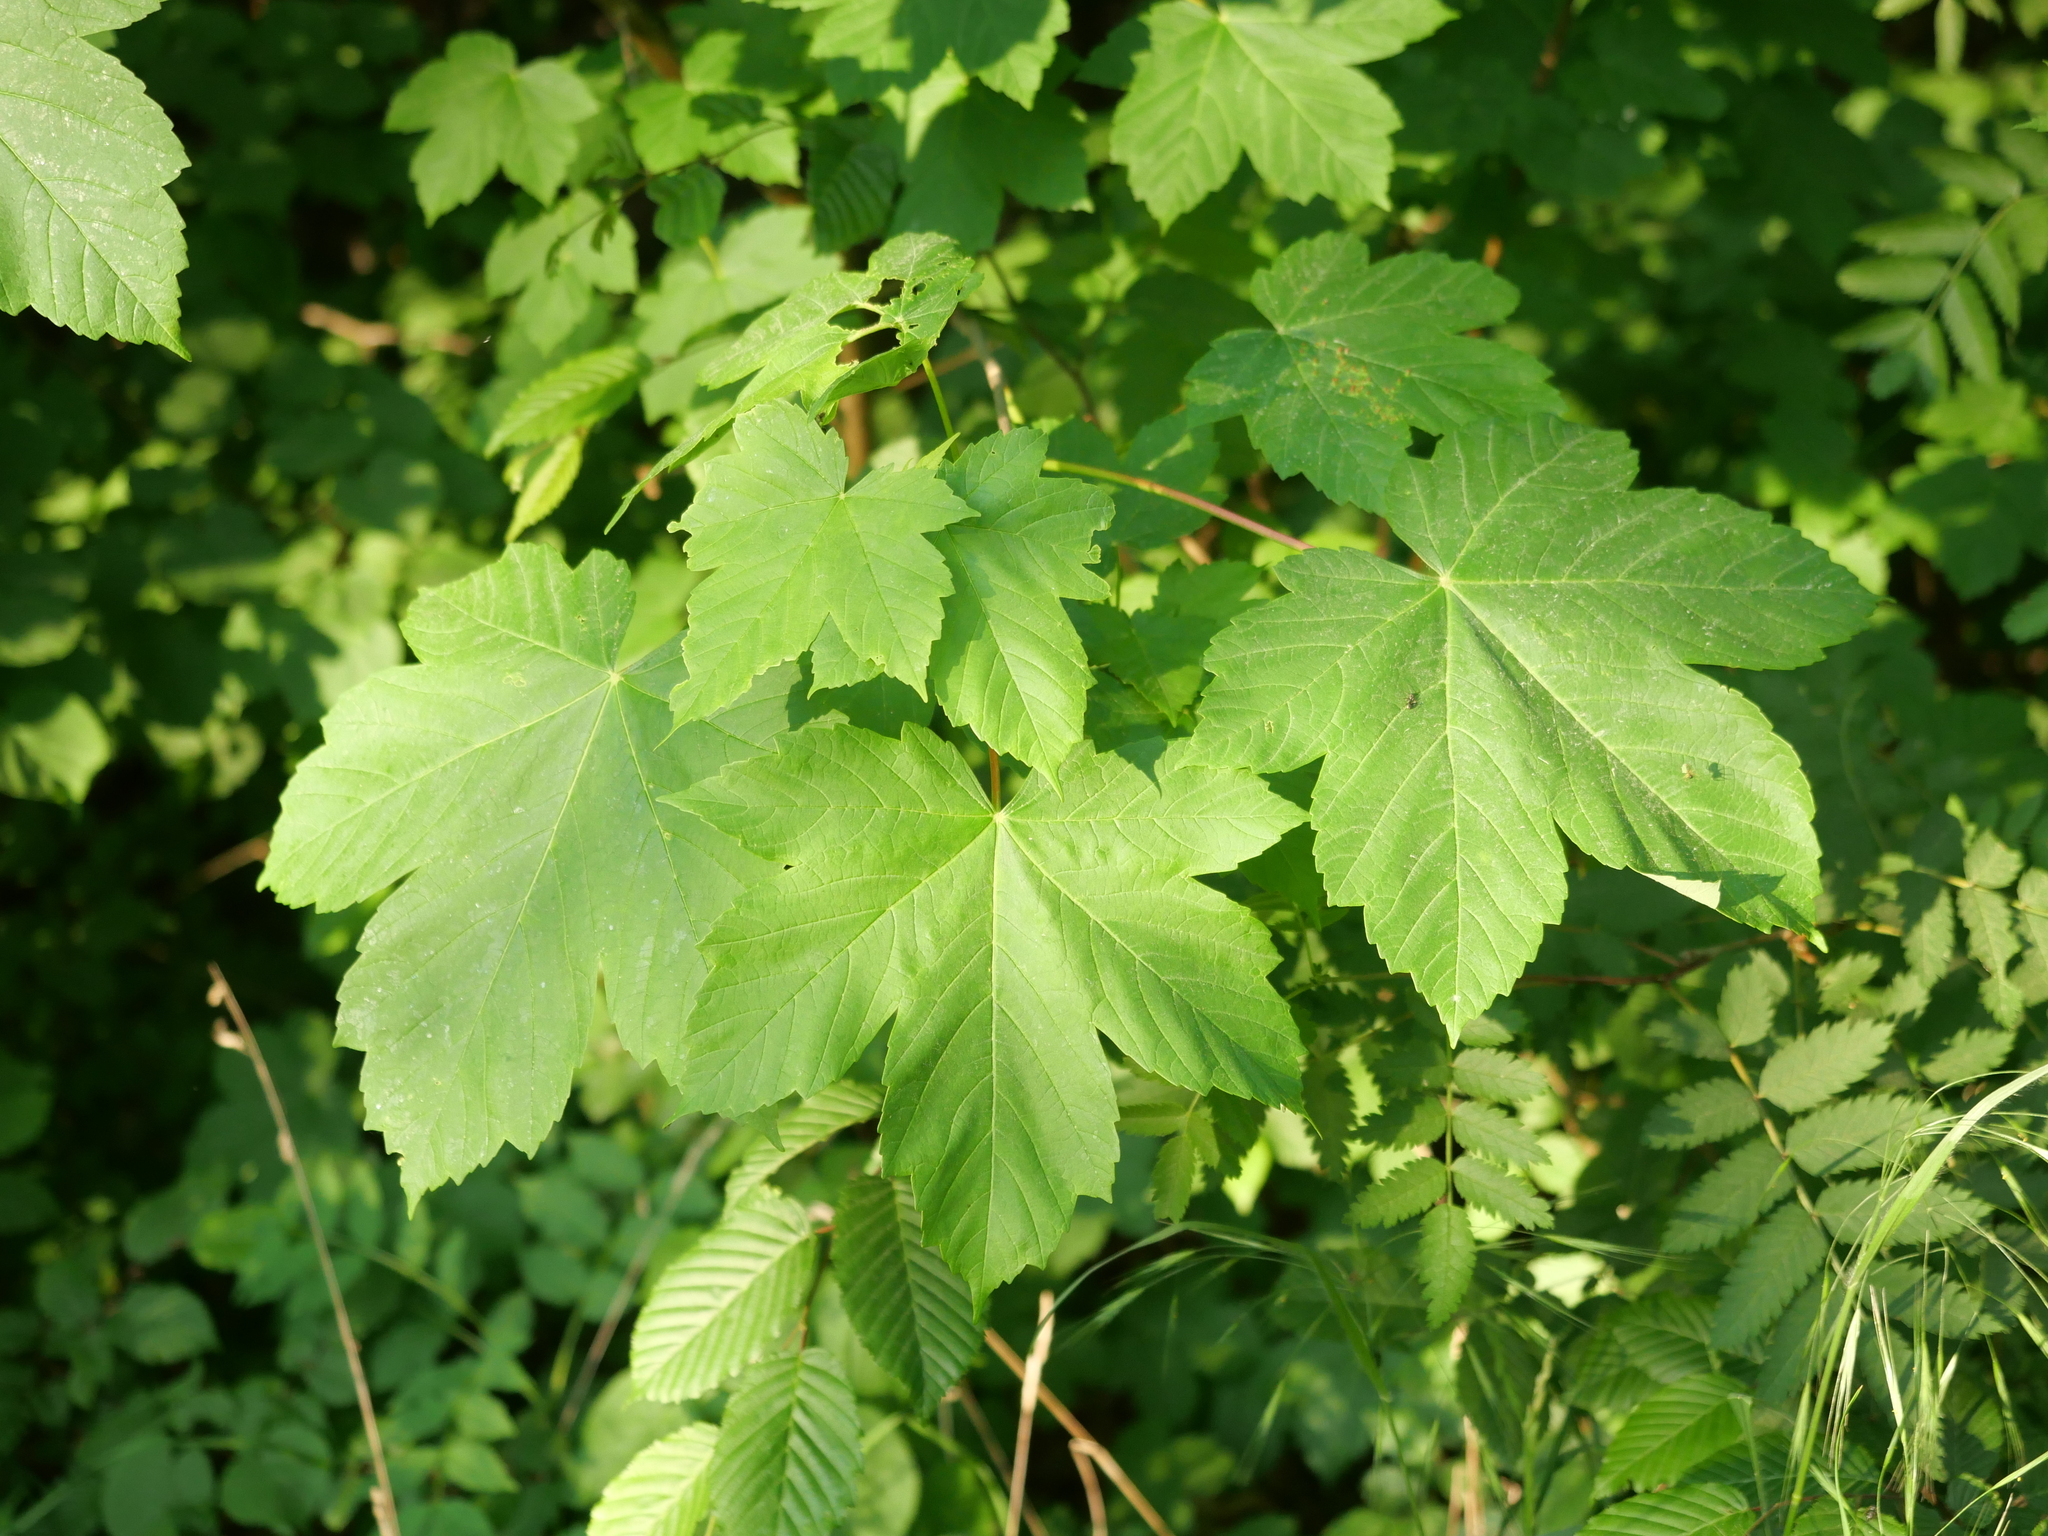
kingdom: Plantae
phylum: Tracheophyta
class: Magnoliopsida
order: Sapindales
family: Sapindaceae
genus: Acer
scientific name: Acer pseudoplatanus
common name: Sycamore
